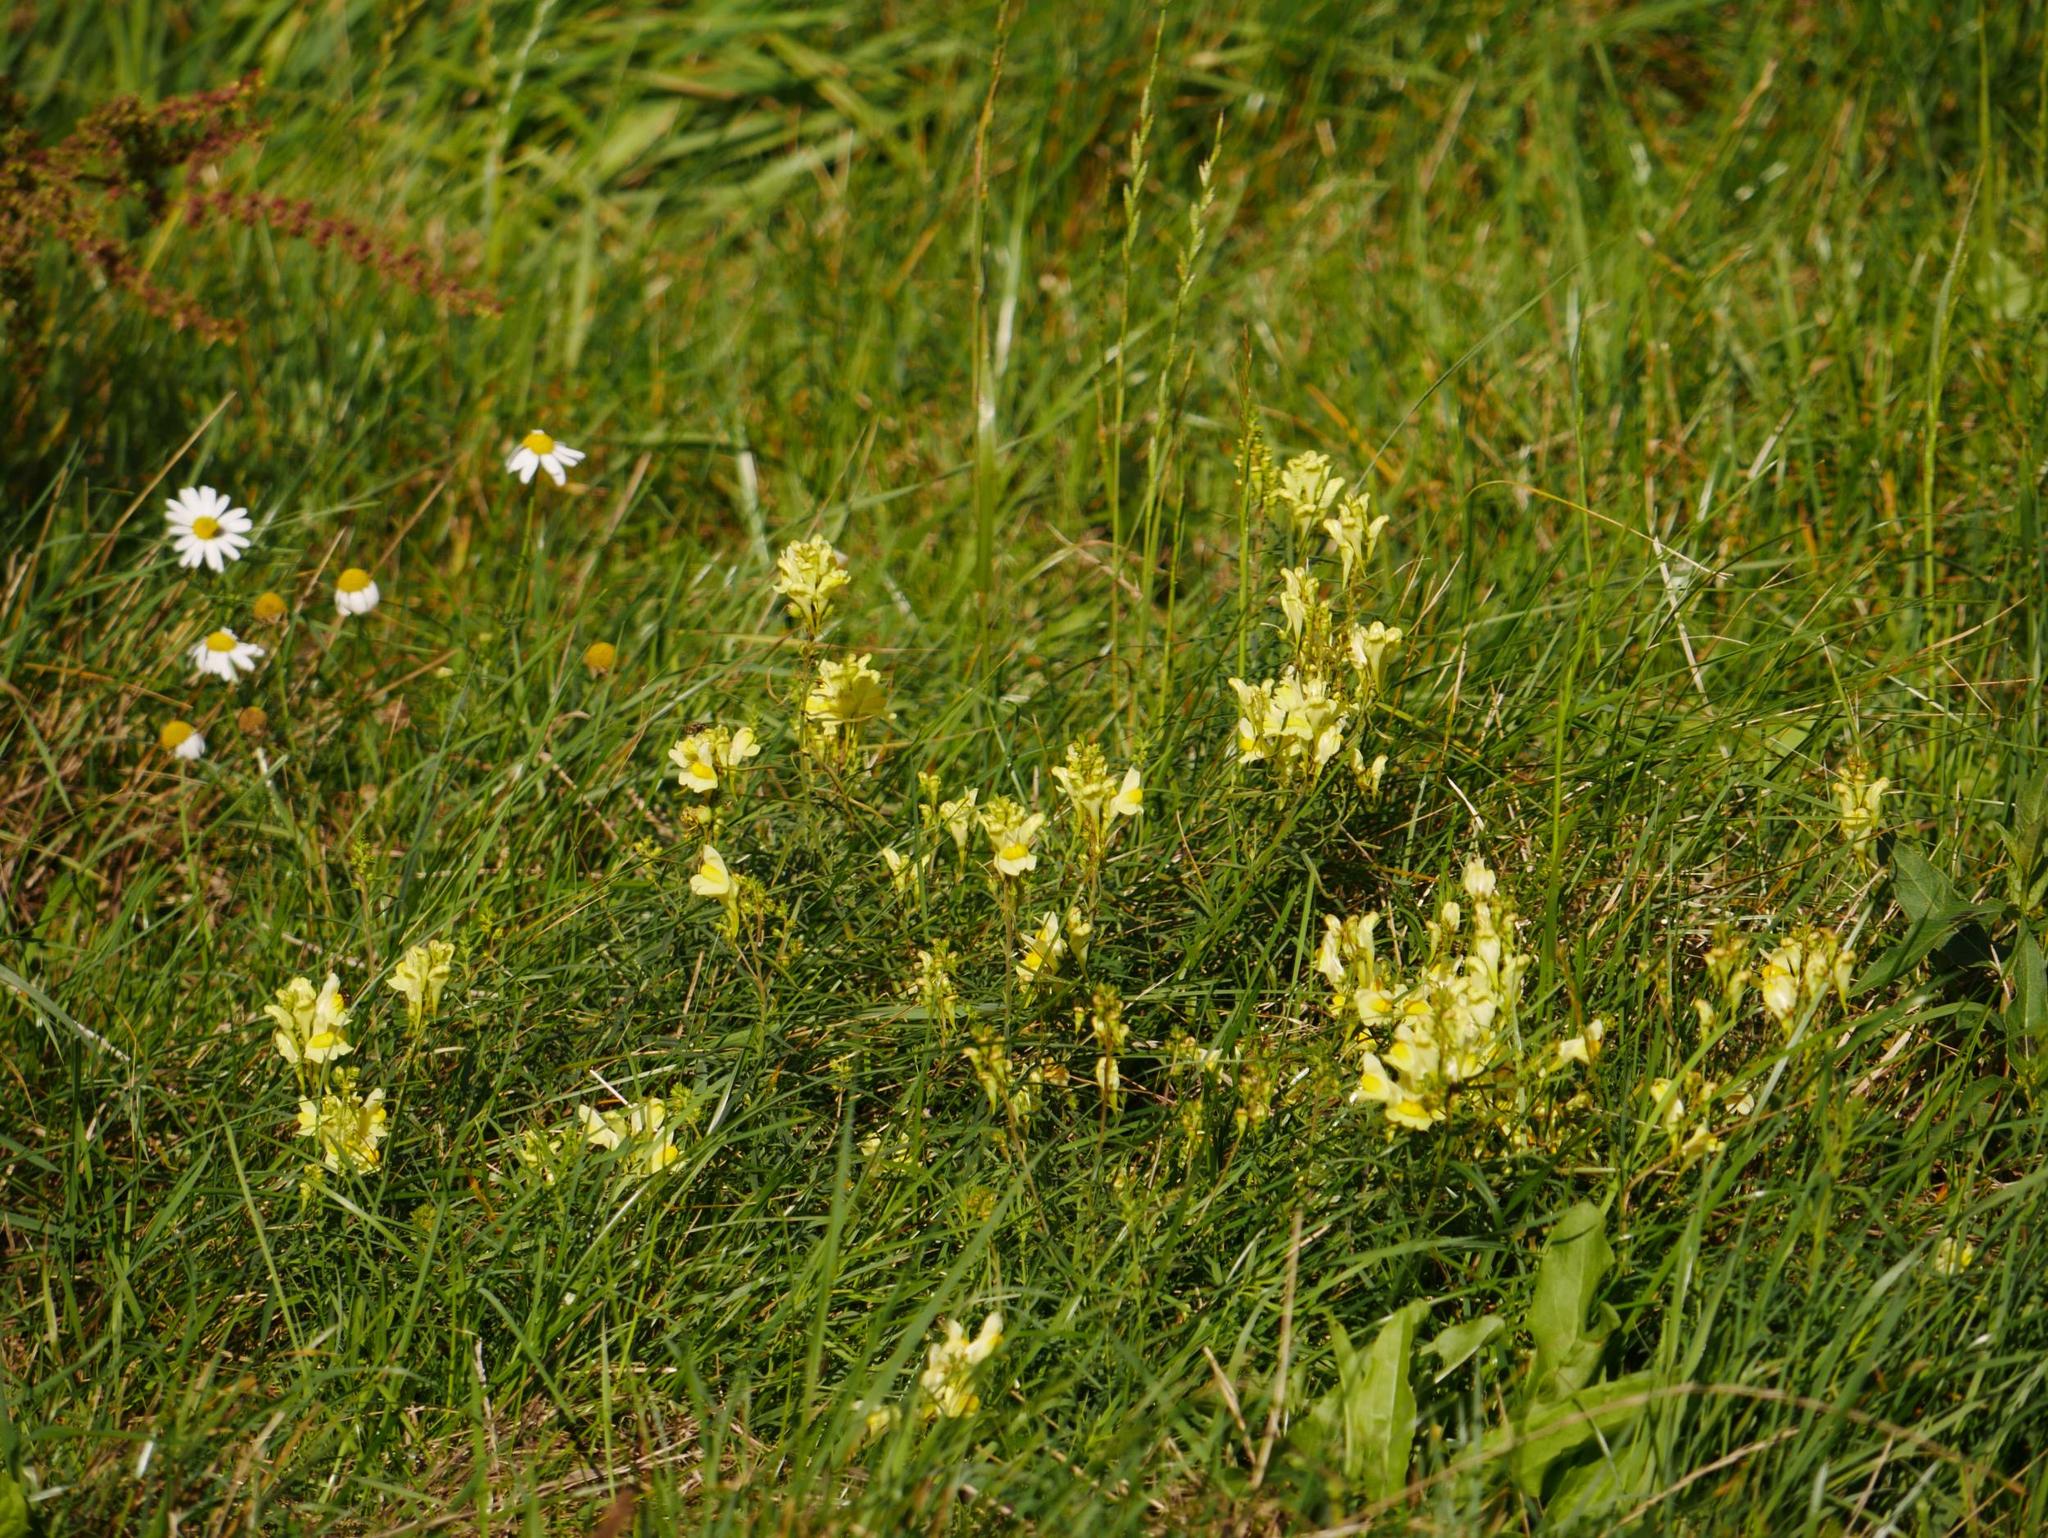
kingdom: Plantae
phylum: Tracheophyta
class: Magnoliopsida
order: Lamiales
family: Plantaginaceae
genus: Linaria
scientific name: Linaria vulgaris
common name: Butter and eggs
